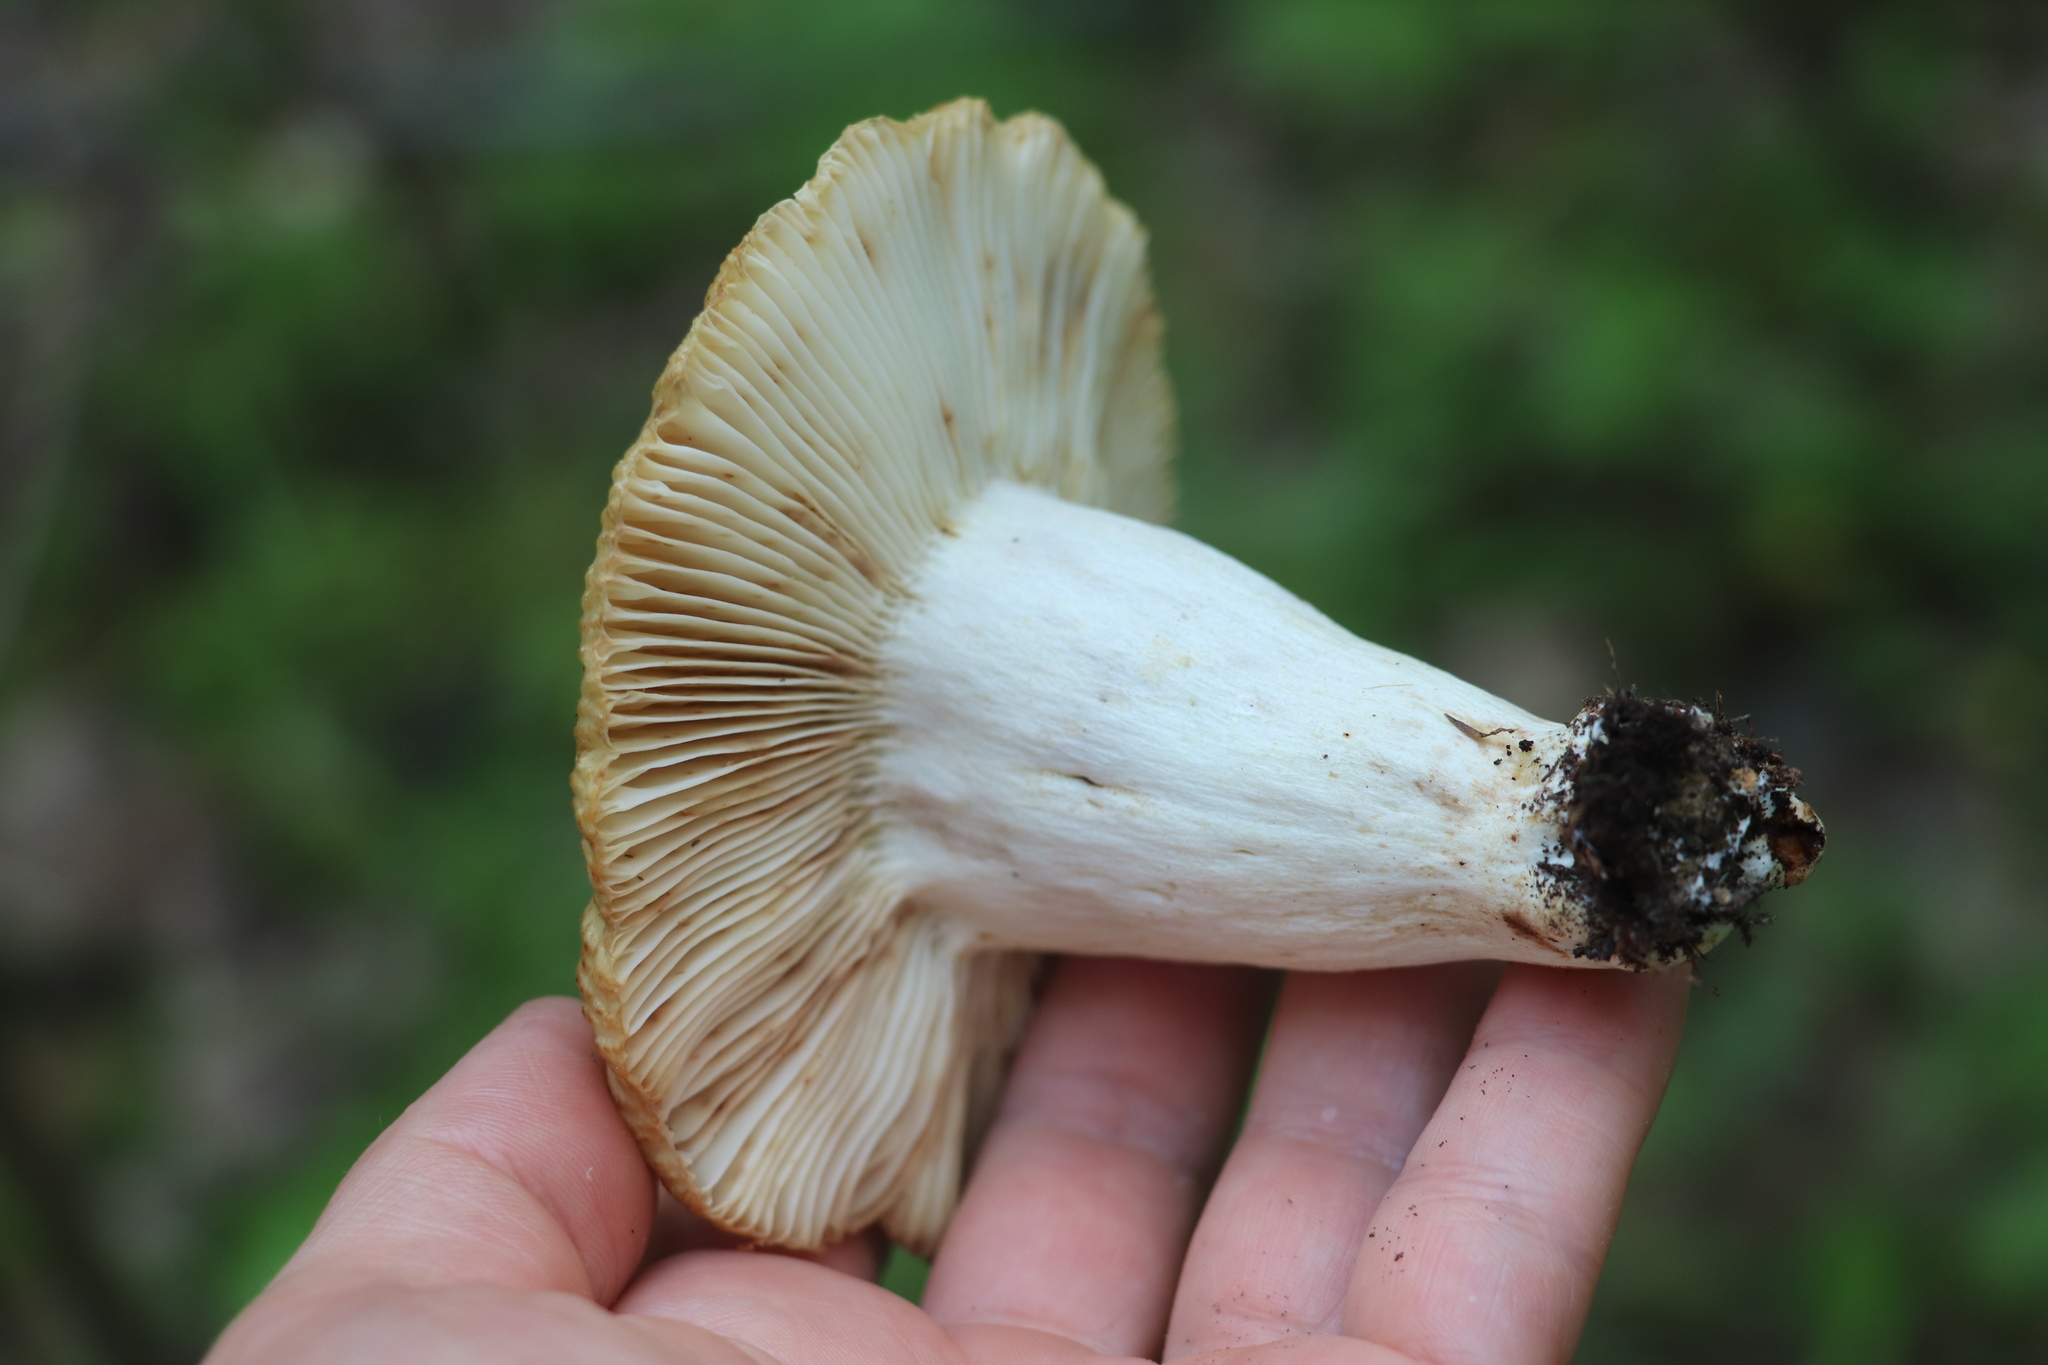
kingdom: Fungi
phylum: Basidiomycota
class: Agaricomycetes
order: Russulales
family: Russulaceae
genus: Russula
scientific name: Russula foetens
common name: Foetid russula
